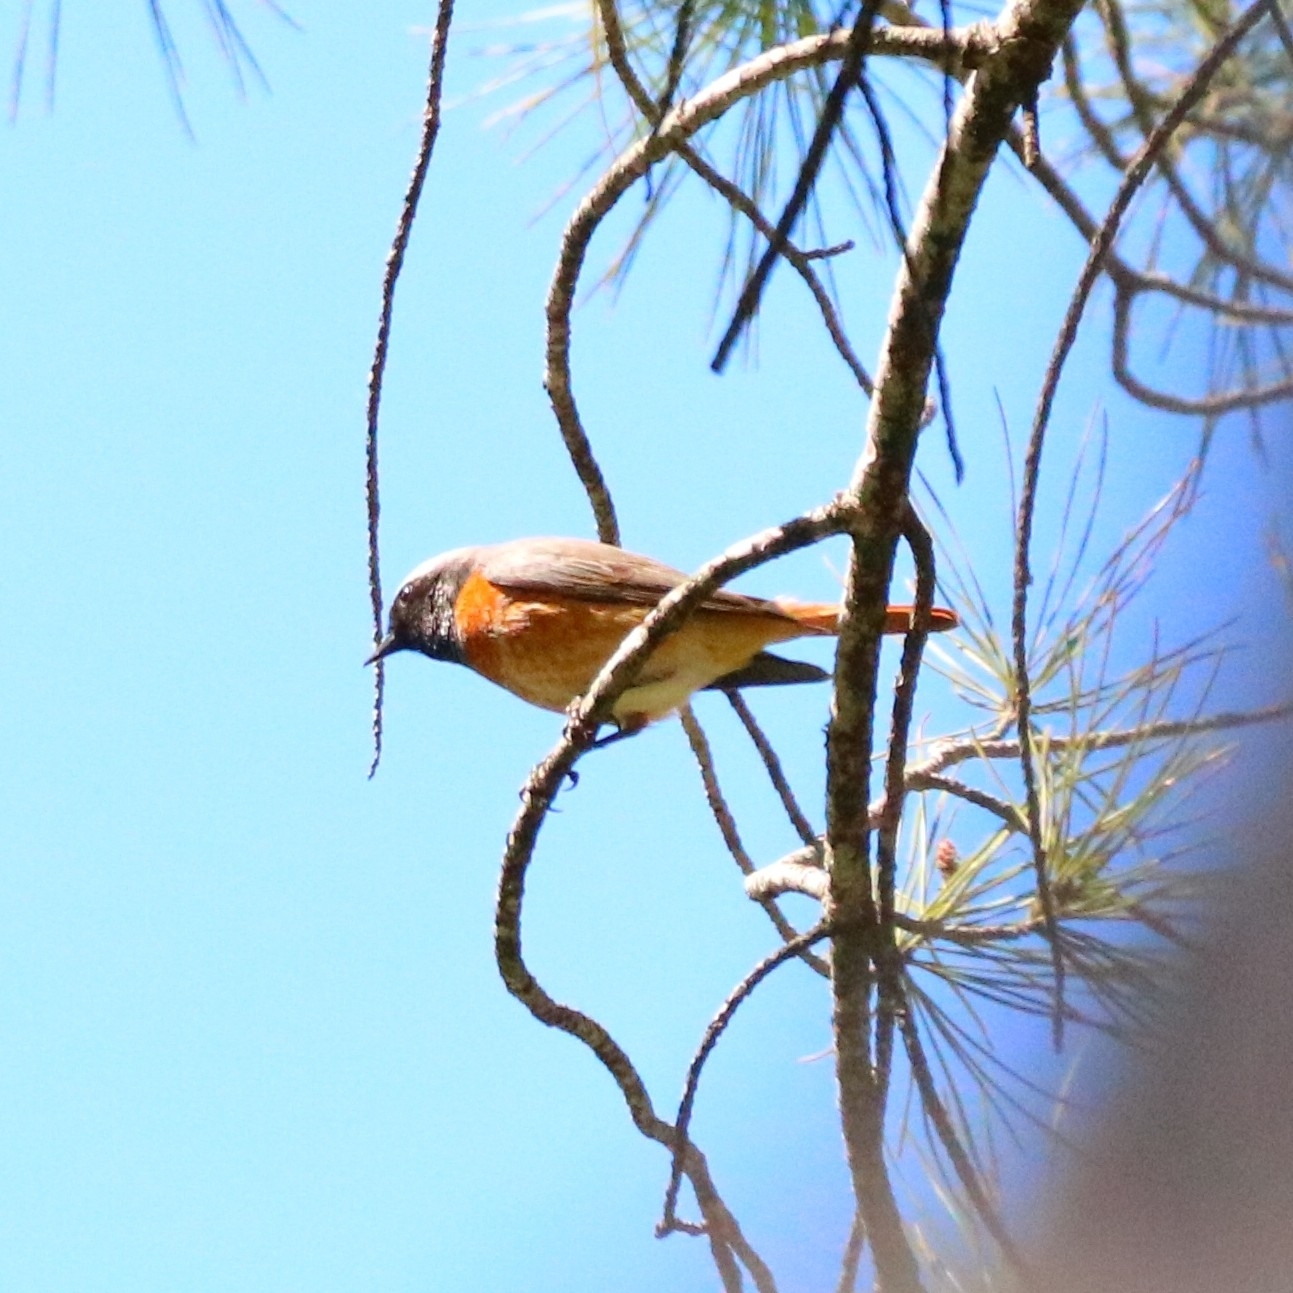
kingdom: Animalia
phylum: Chordata
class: Aves
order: Passeriformes
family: Muscicapidae
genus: Phoenicurus
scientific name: Phoenicurus phoenicurus
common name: Common redstart
